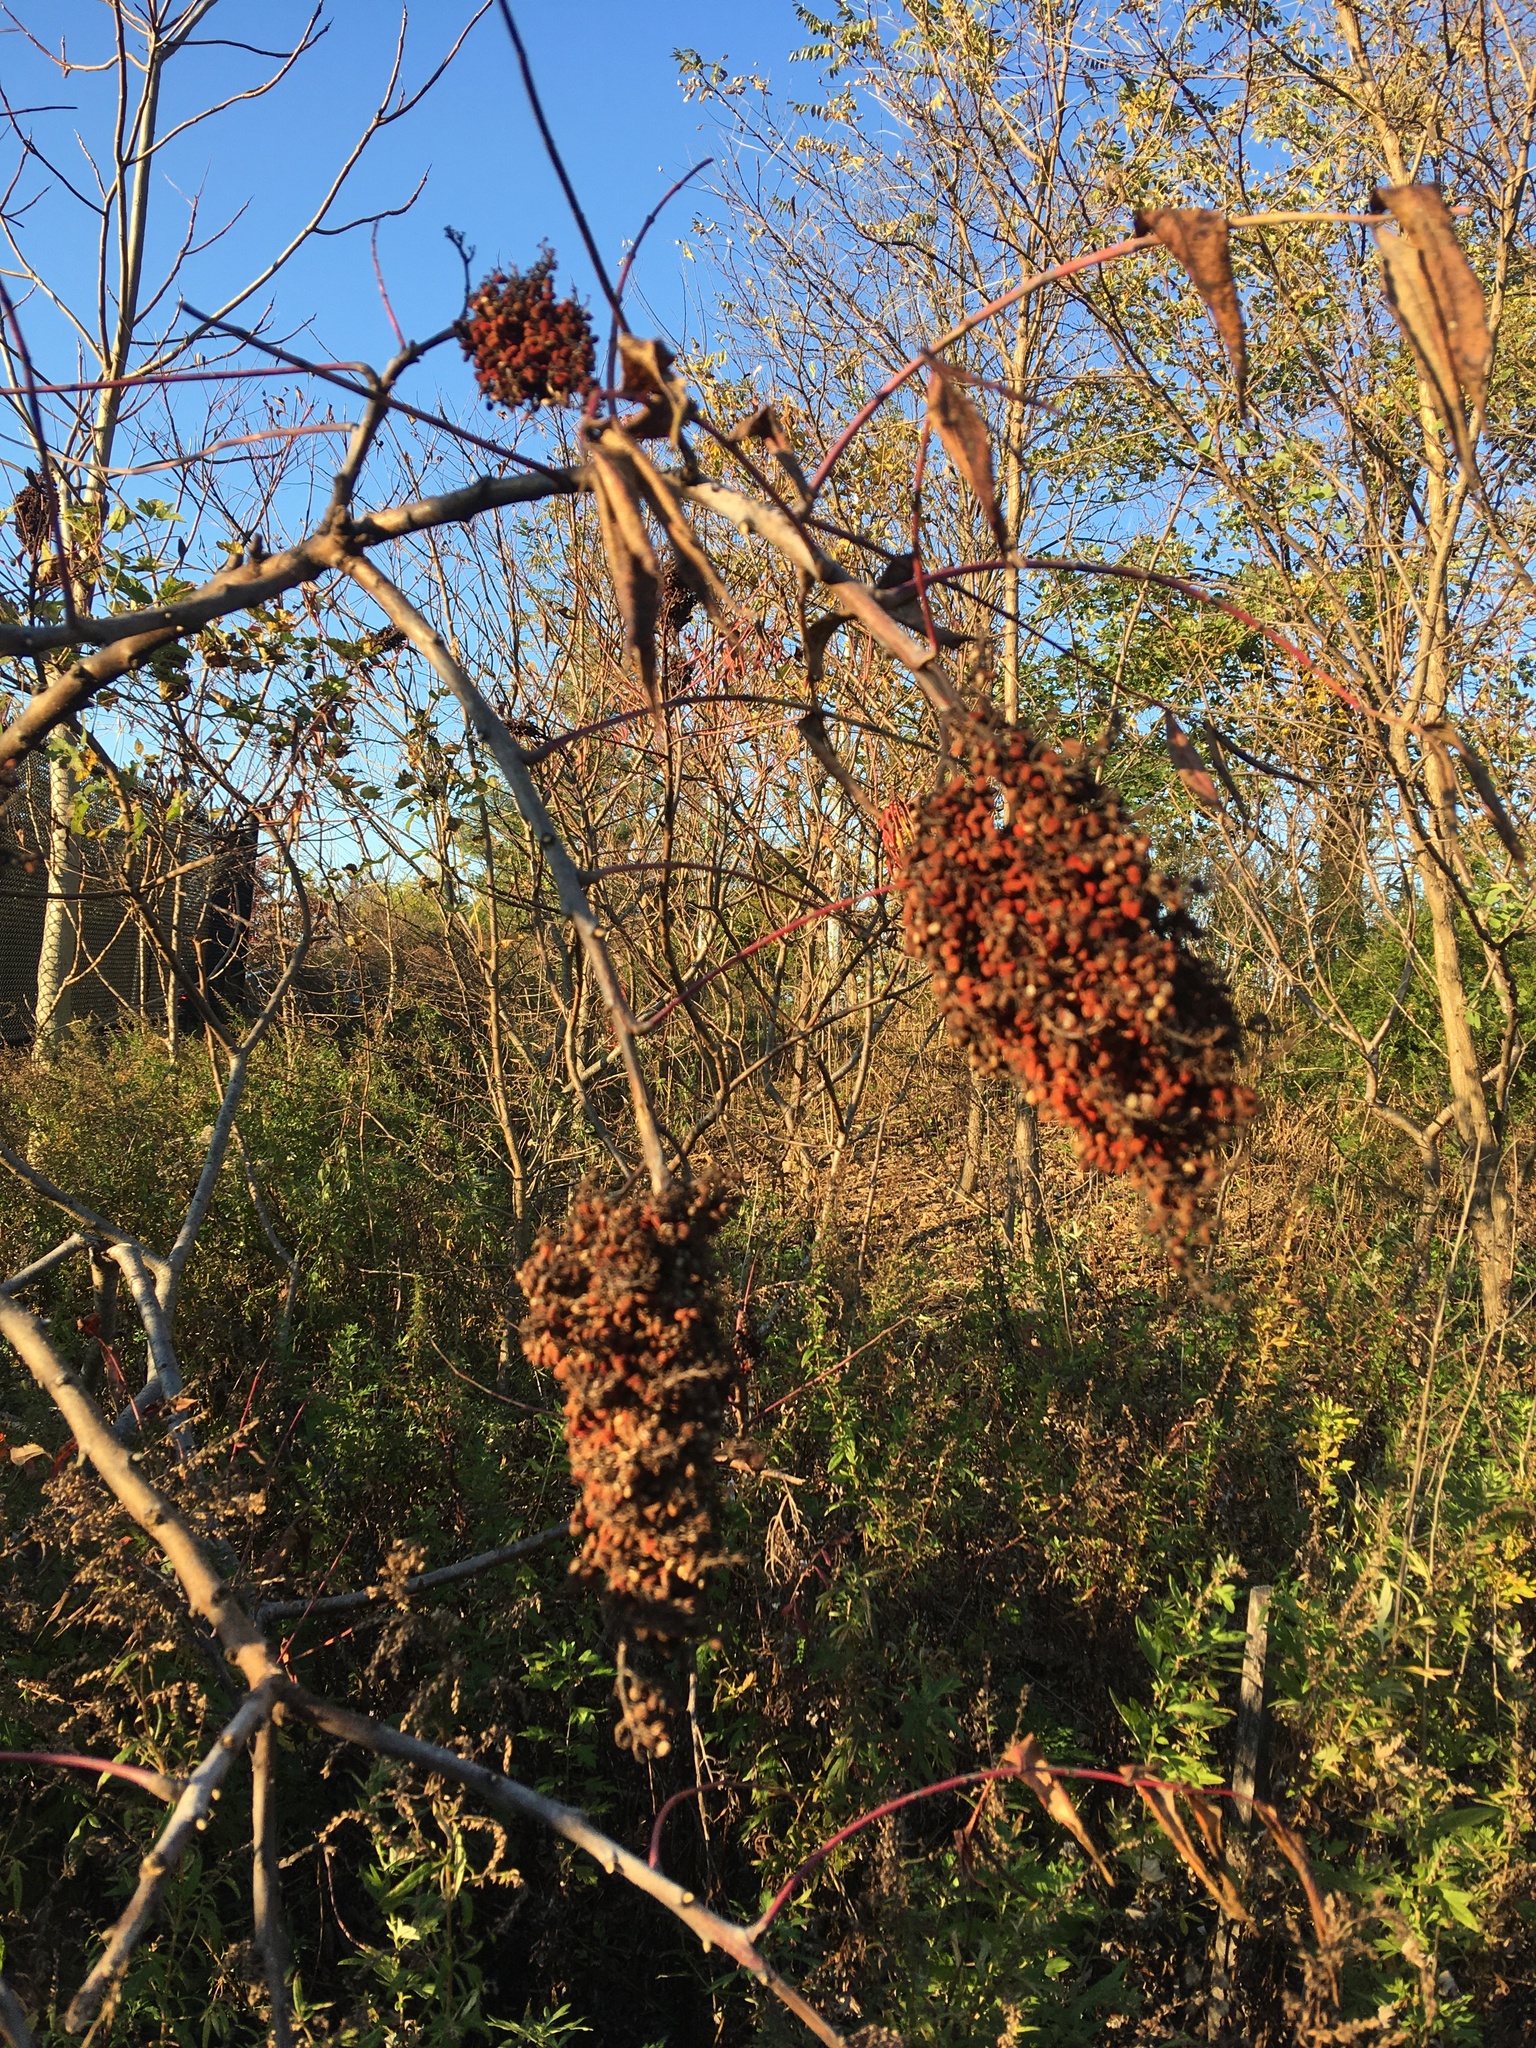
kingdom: Plantae
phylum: Tracheophyta
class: Magnoliopsida
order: Sapindales
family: Anacardiaceae
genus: Rhus
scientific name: Rhus glabra
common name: Scarlet sumac
